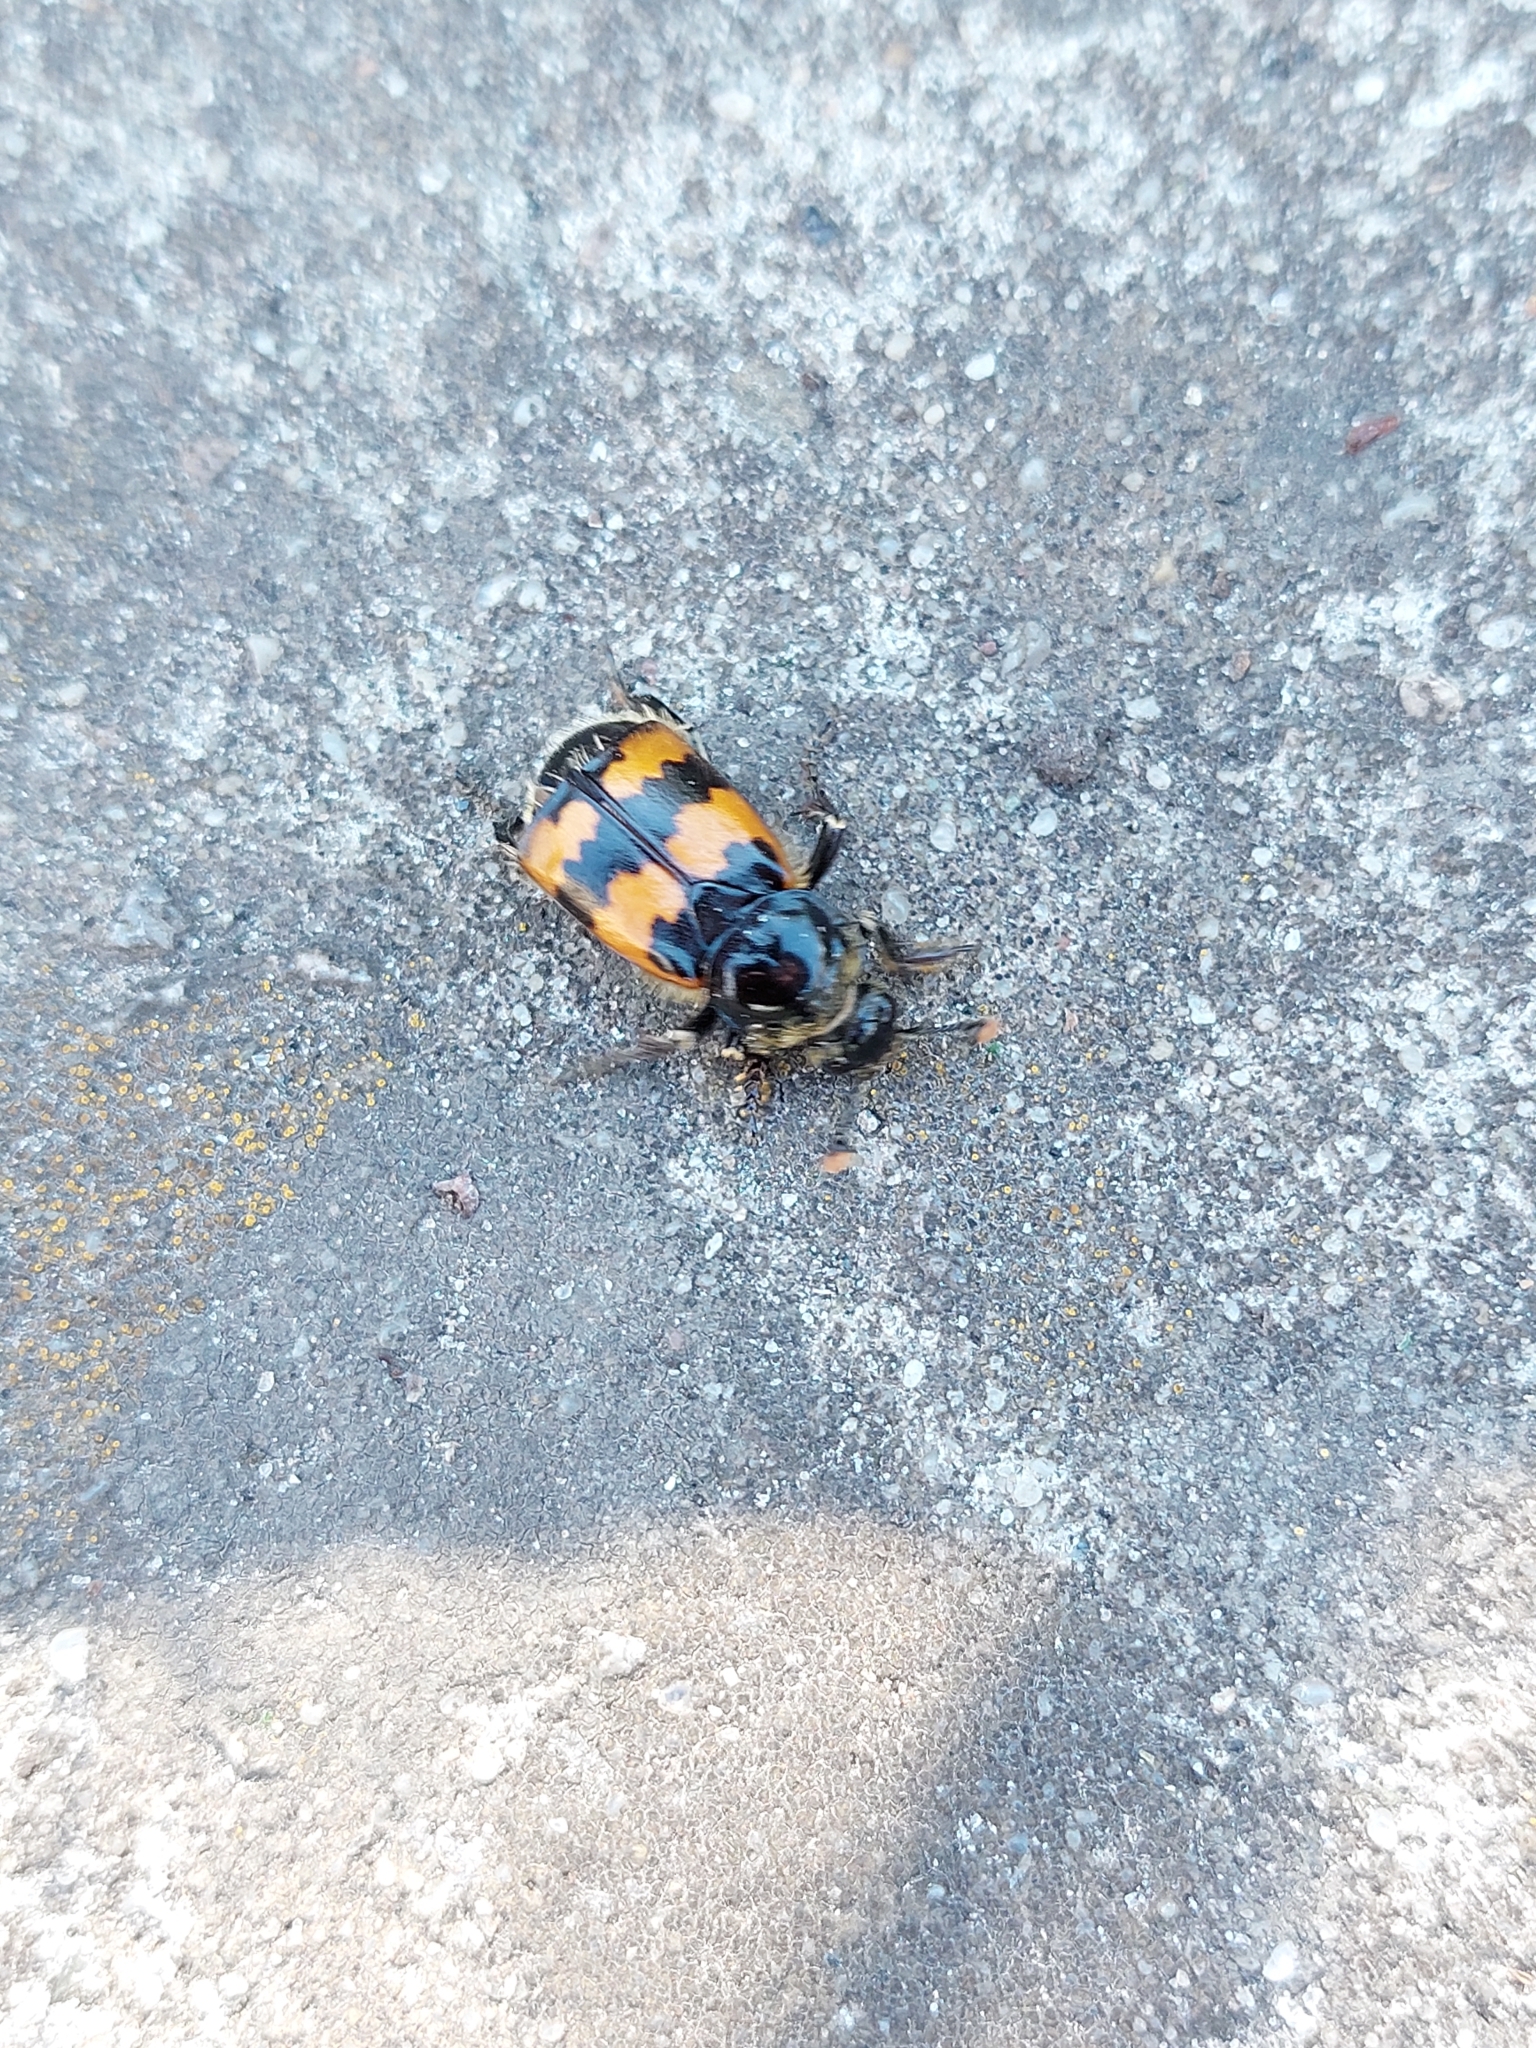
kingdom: Animalia
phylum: Arthropoda
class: Insecta
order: Coleoptera
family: Staphylinidae
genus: Nicrophorus
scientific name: Nicrophorus vespillo
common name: Common burying beetle
